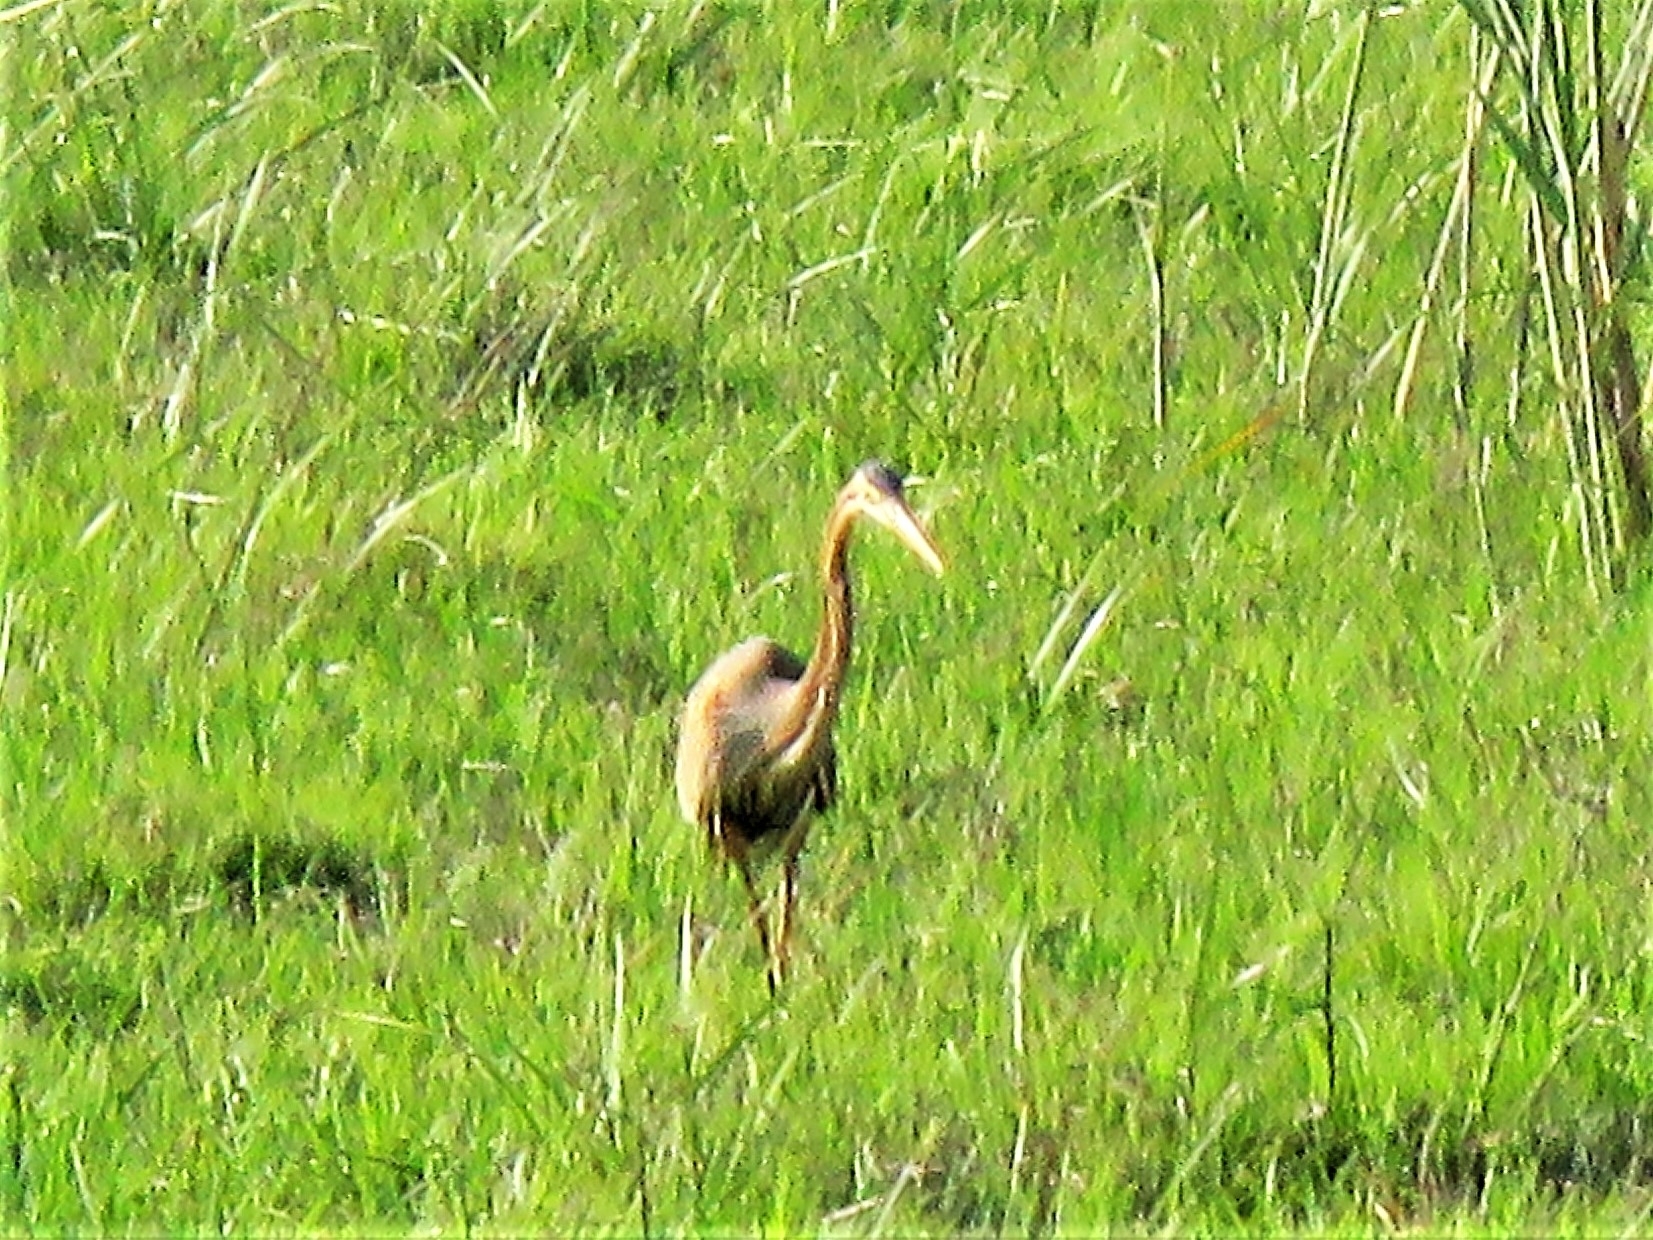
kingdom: Animalia
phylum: Chordata
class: Aves
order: Pelecaniformes
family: Ardeidae
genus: Ardea
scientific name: Ardea purpurea
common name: Purple heron
